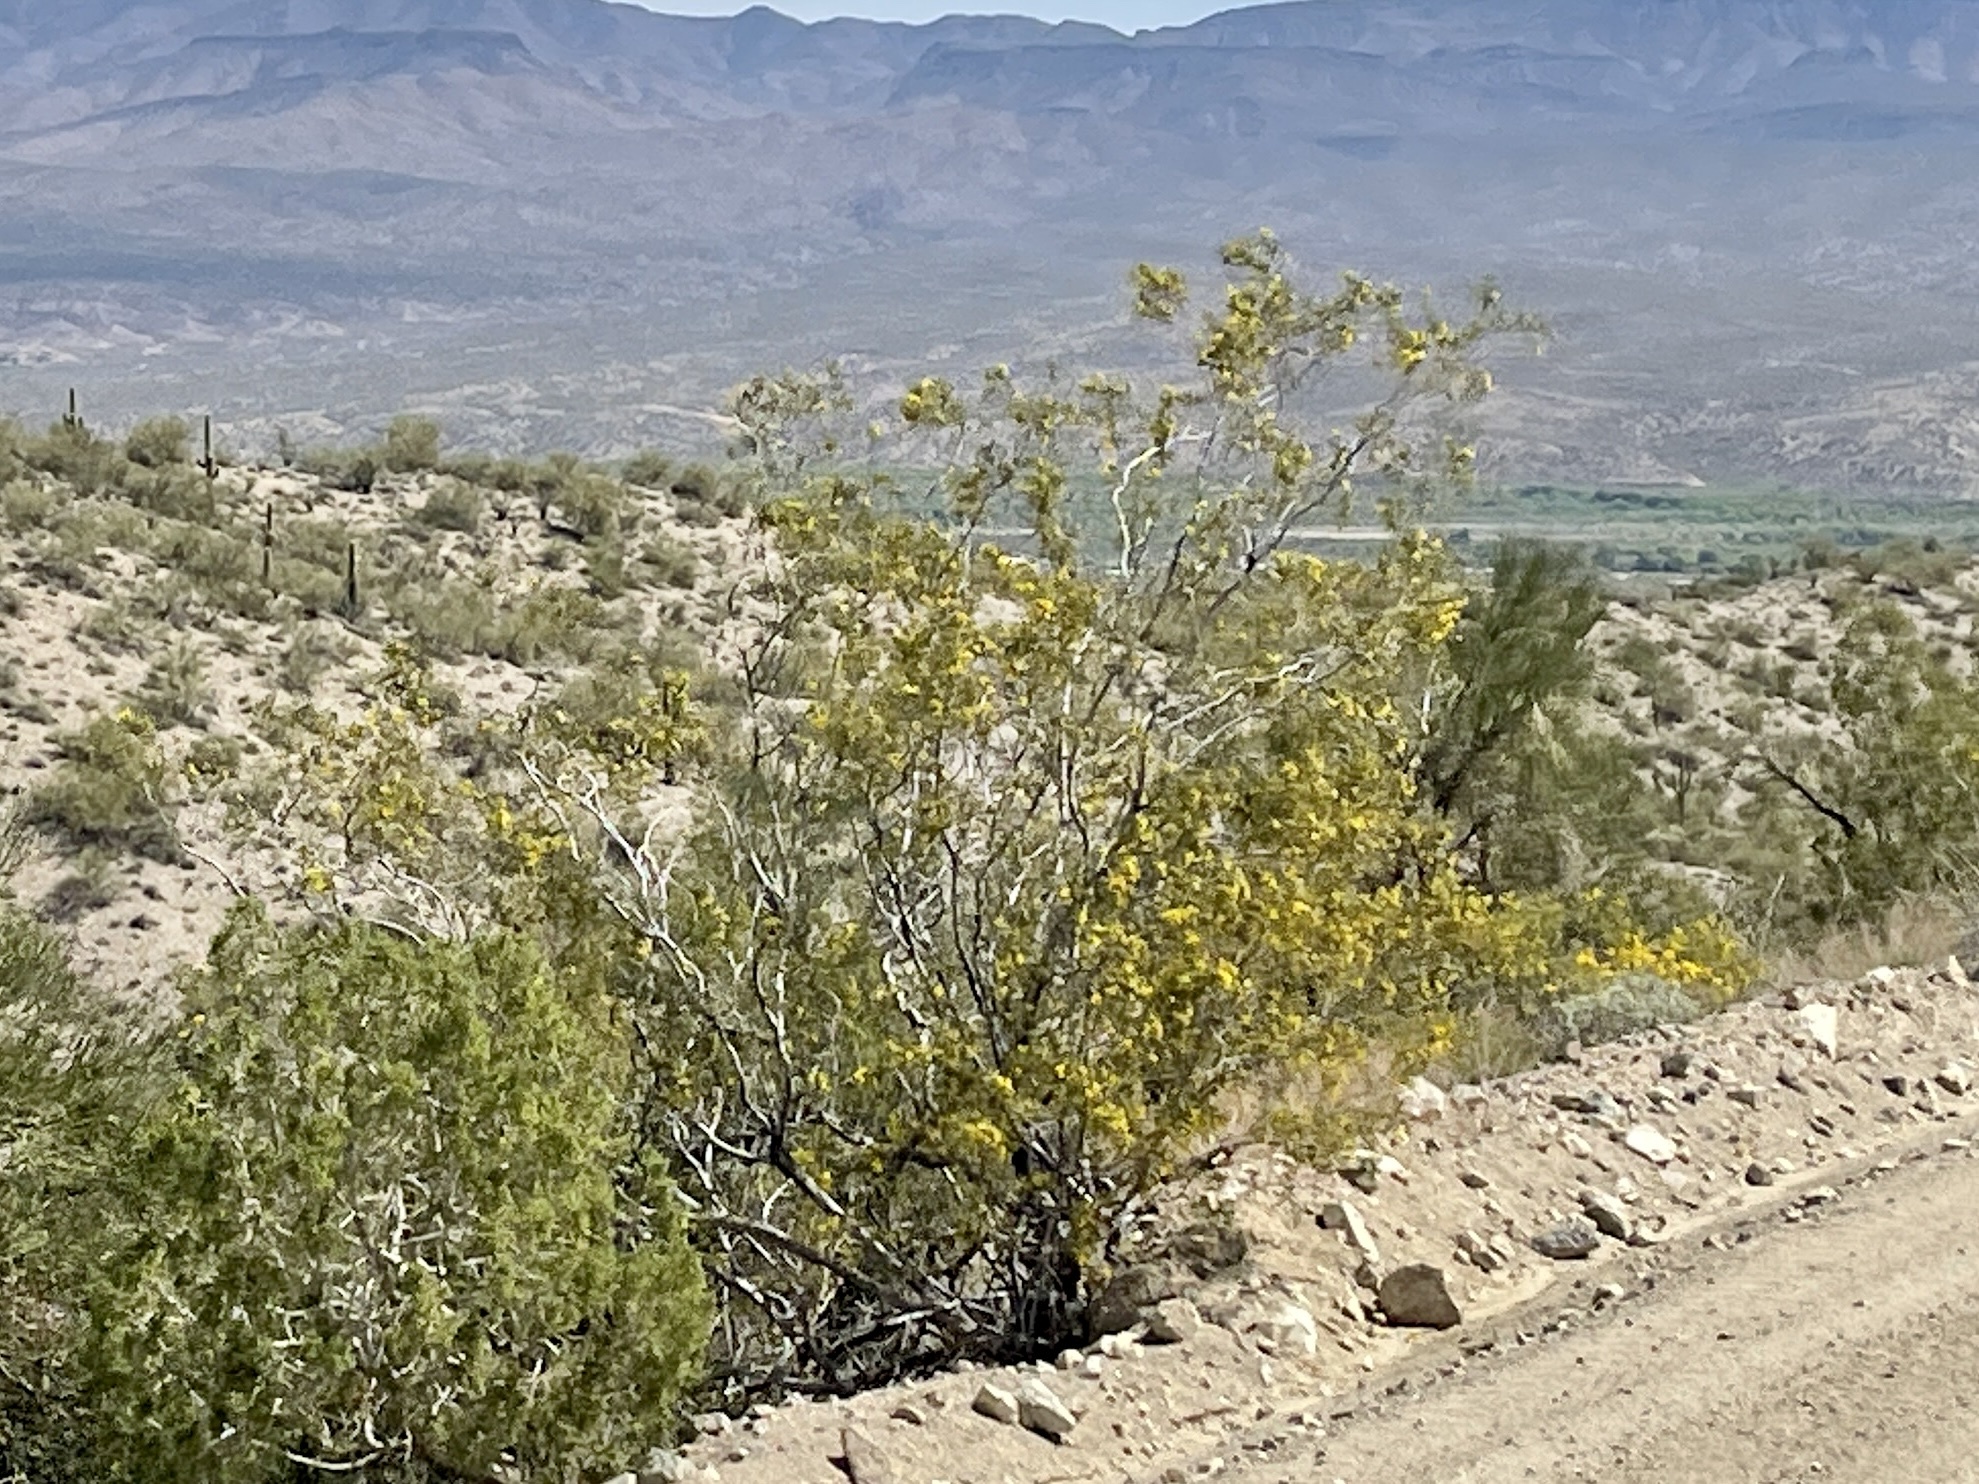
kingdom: Plantae
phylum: Tracheophyta
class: Magnoliopsida
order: Zygophyllales
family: Zygophyllaceae
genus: Larrea
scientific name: Larrea tridentata
